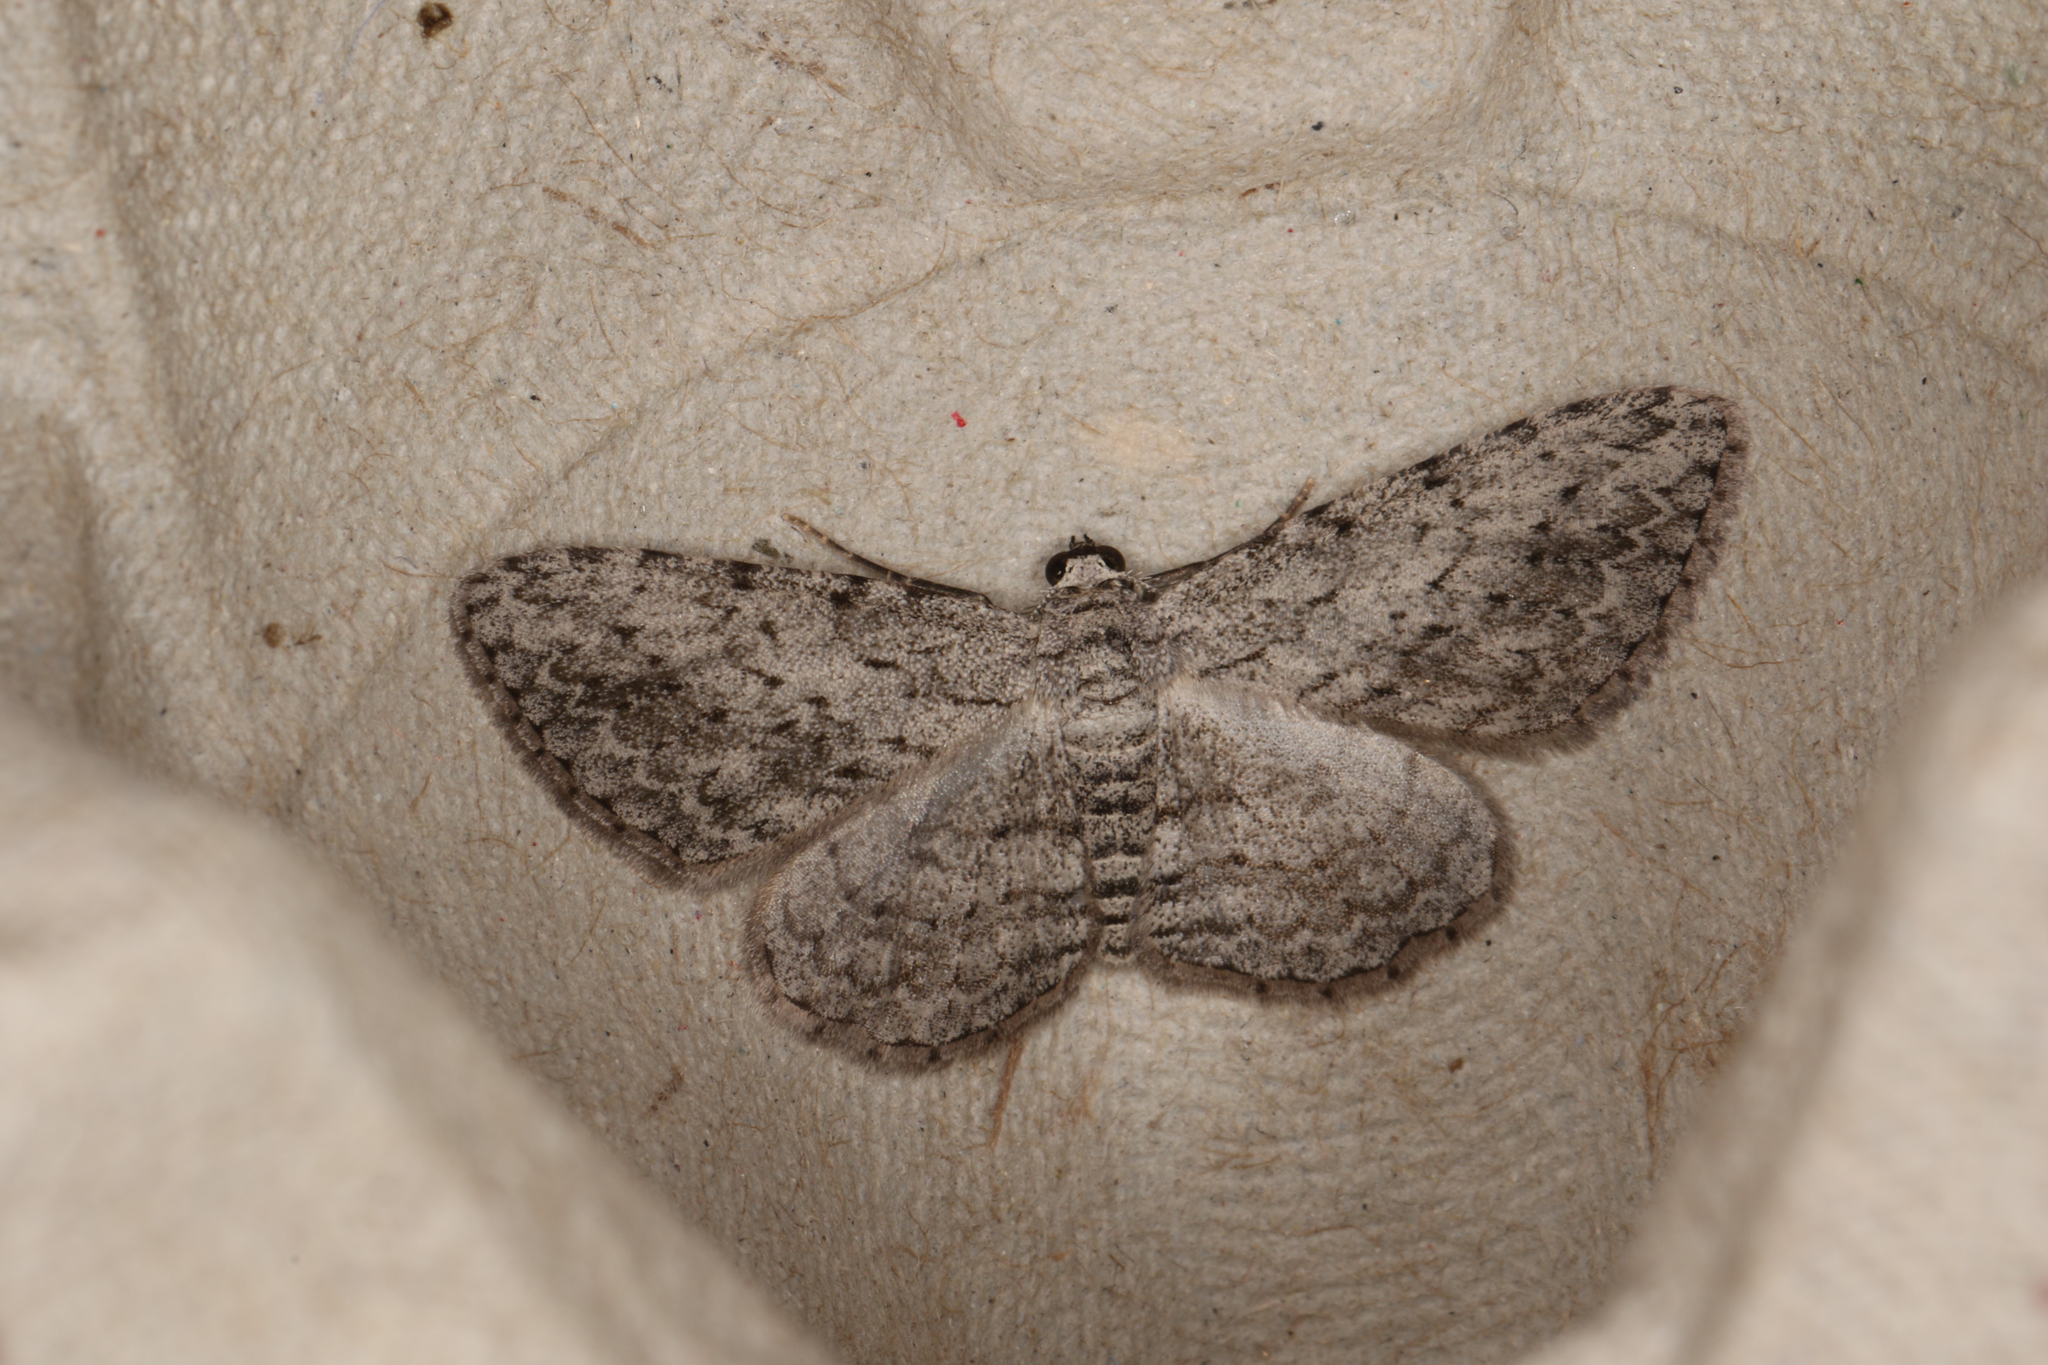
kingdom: Animalia
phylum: Arthropoda
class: Insecta
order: Lepidoptera
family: Geometridae
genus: Phelotis
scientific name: Phelotis cognata
